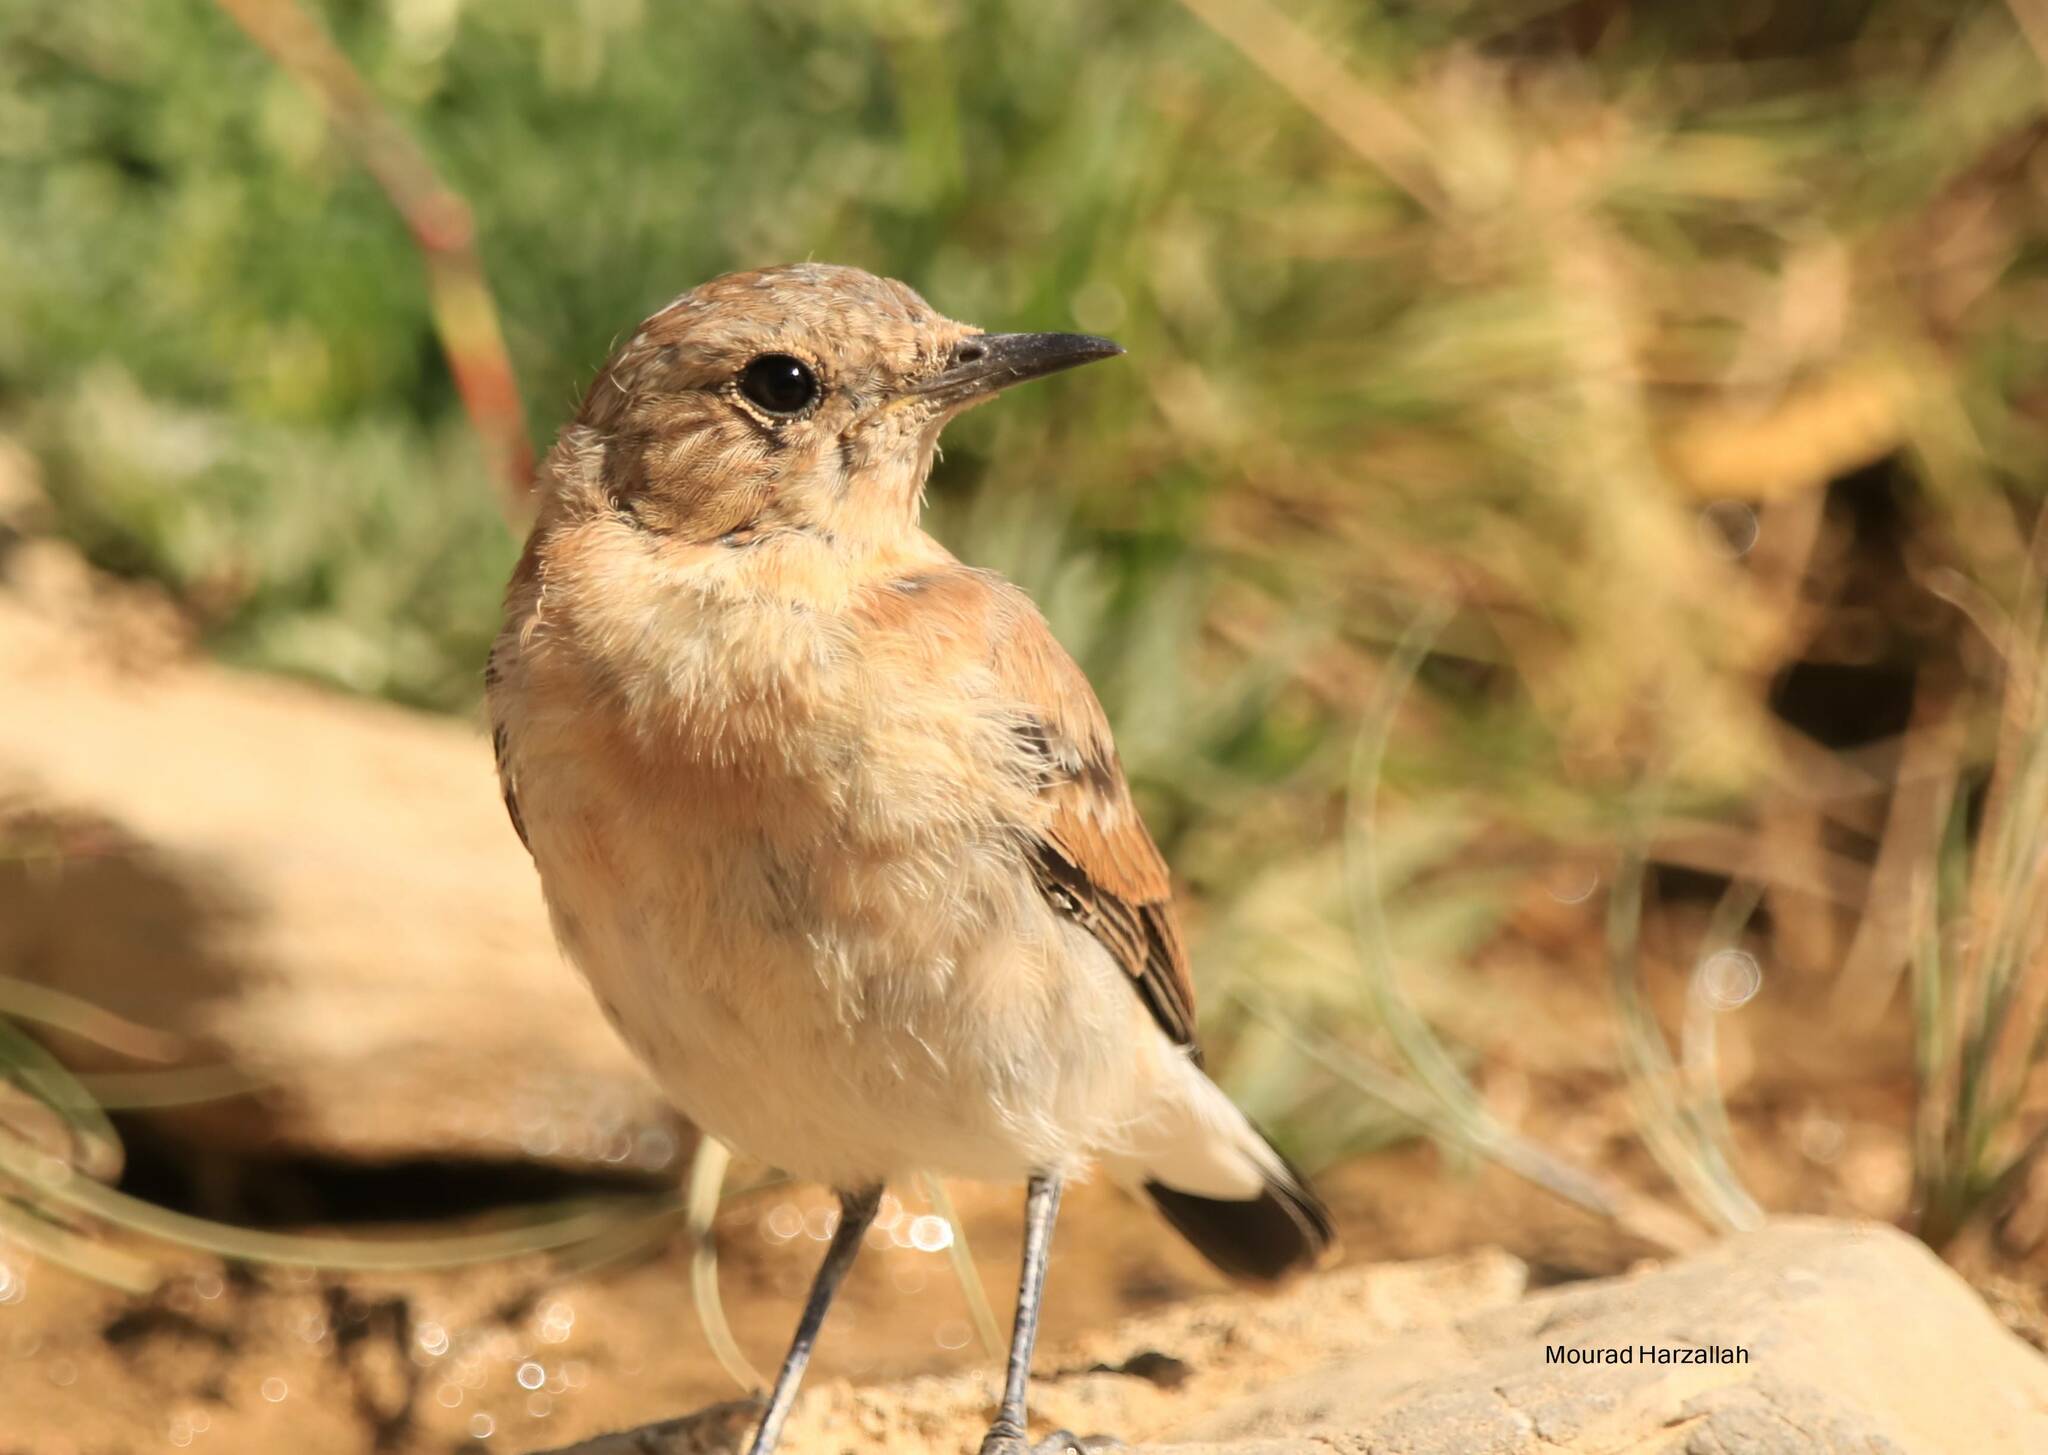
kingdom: Animalia
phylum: Chordata
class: Aves
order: Passeriformes
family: Muscicapidae
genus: Oenanthe
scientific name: Oenanthe oenanthe
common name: Northern wheatear
